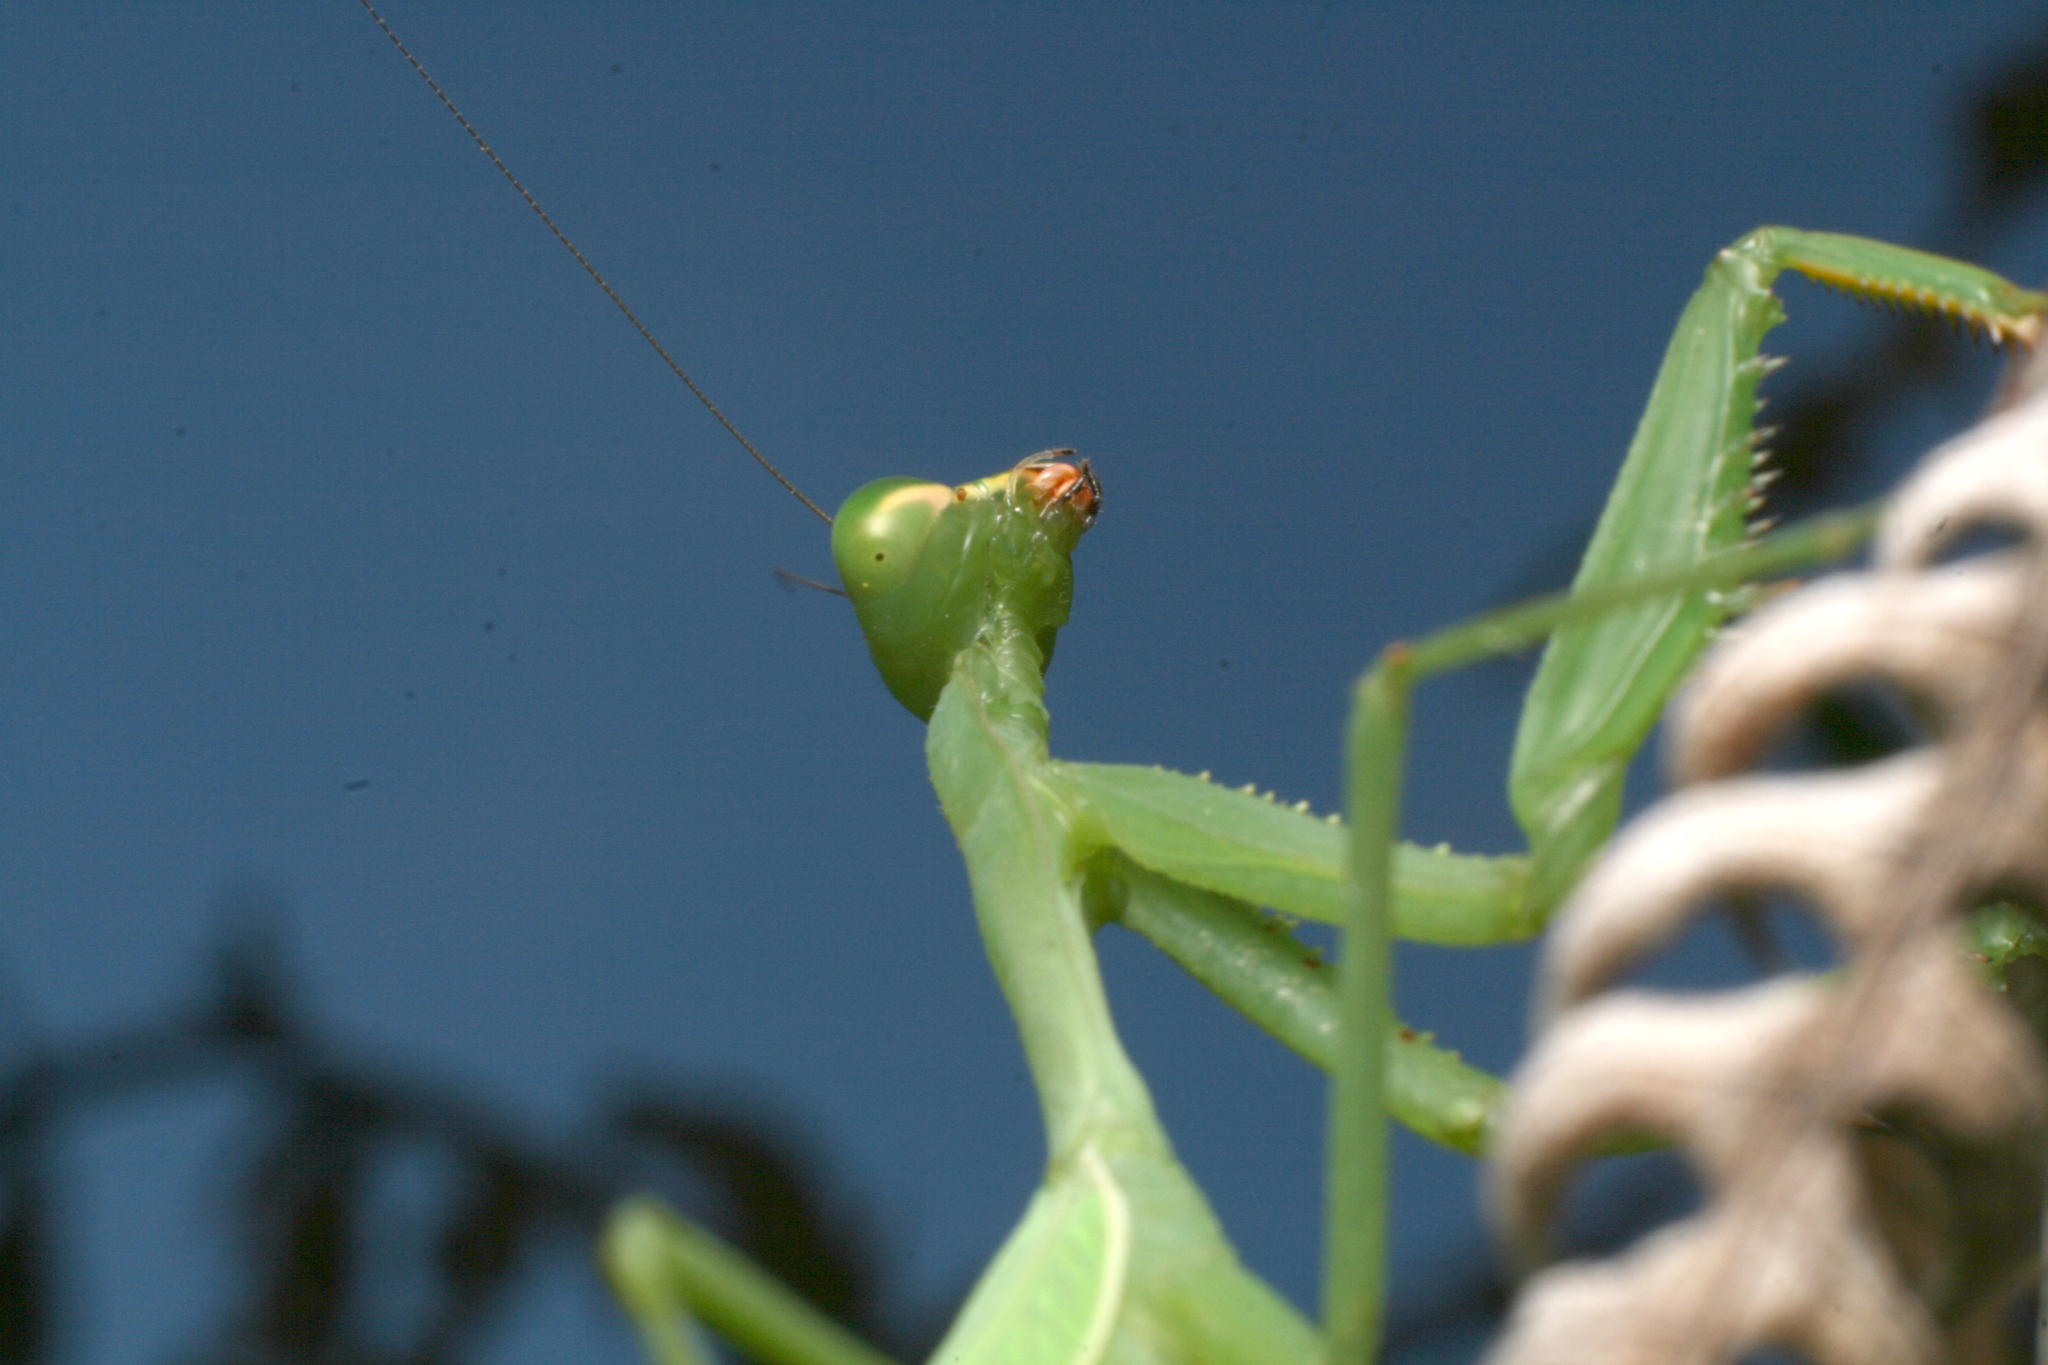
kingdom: Animalia
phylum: Arthropoda
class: Insecta
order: Mantodea
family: Miomantidae
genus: Miomantis
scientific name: Miomantis caffra
